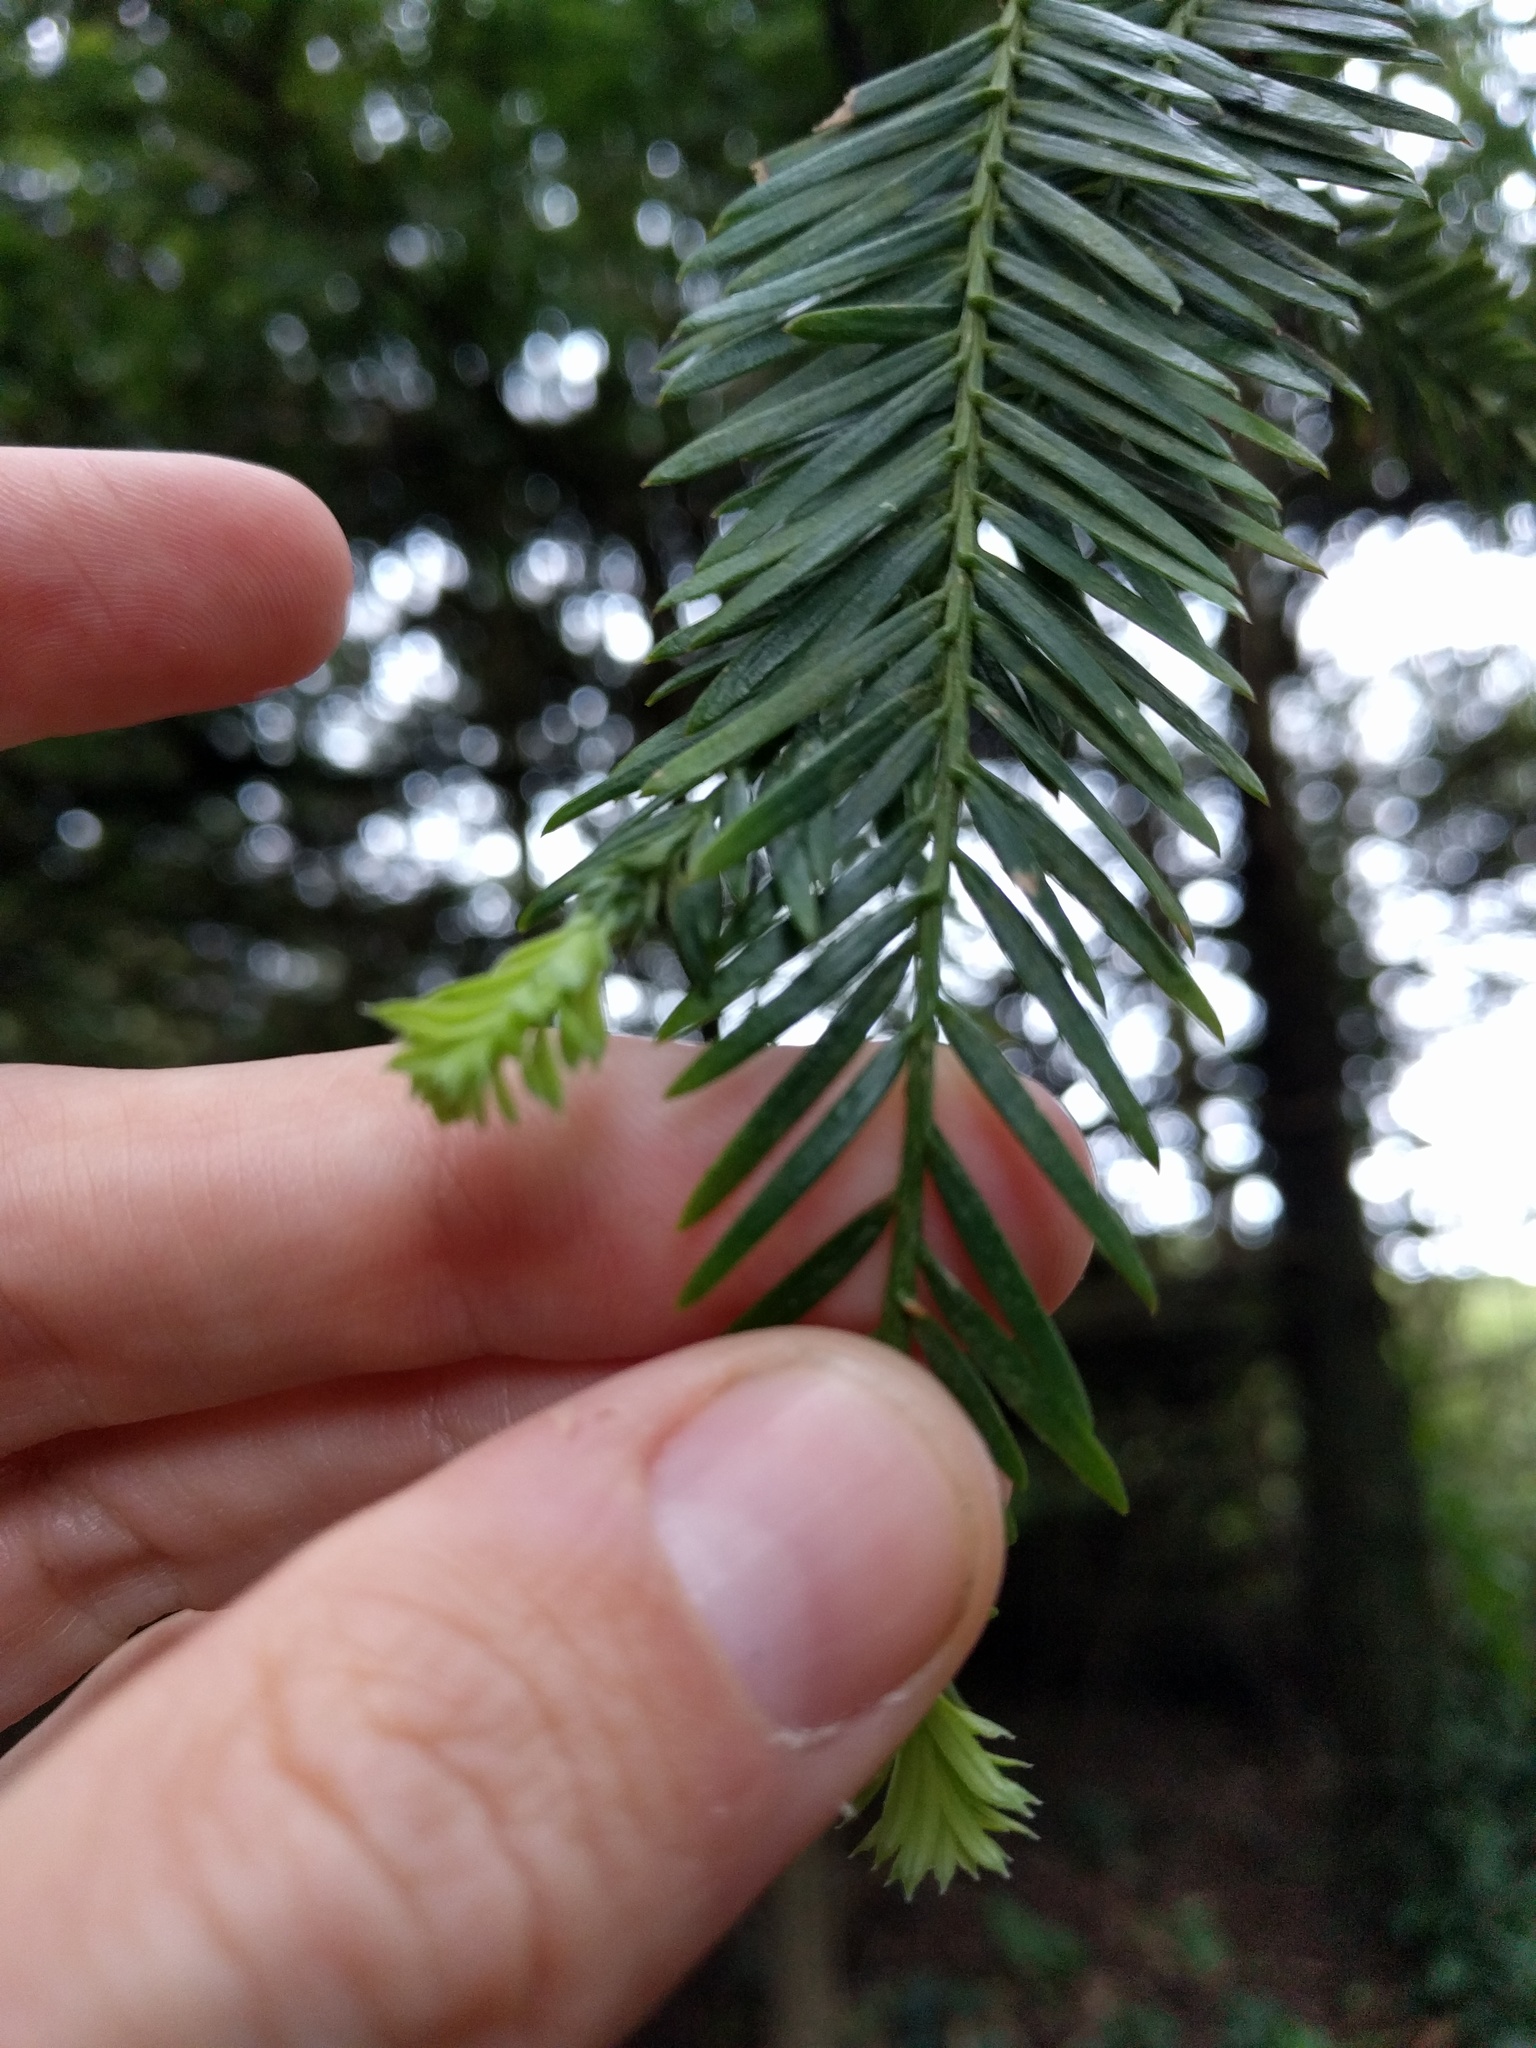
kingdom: Plantae
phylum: Tracheophyta
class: Pinopsida
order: Pinales
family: Cupressaceae
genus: Sequoia
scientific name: Sequoia sempervirens
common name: Coast redwood
